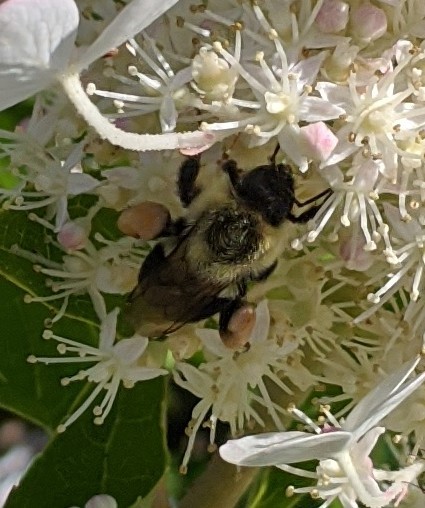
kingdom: Animalia
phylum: Arthropoda
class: Insecta
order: Hymenoptera
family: Apidae
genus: Bombus
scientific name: Bombus impatiens
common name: Common eastern bumble bee
